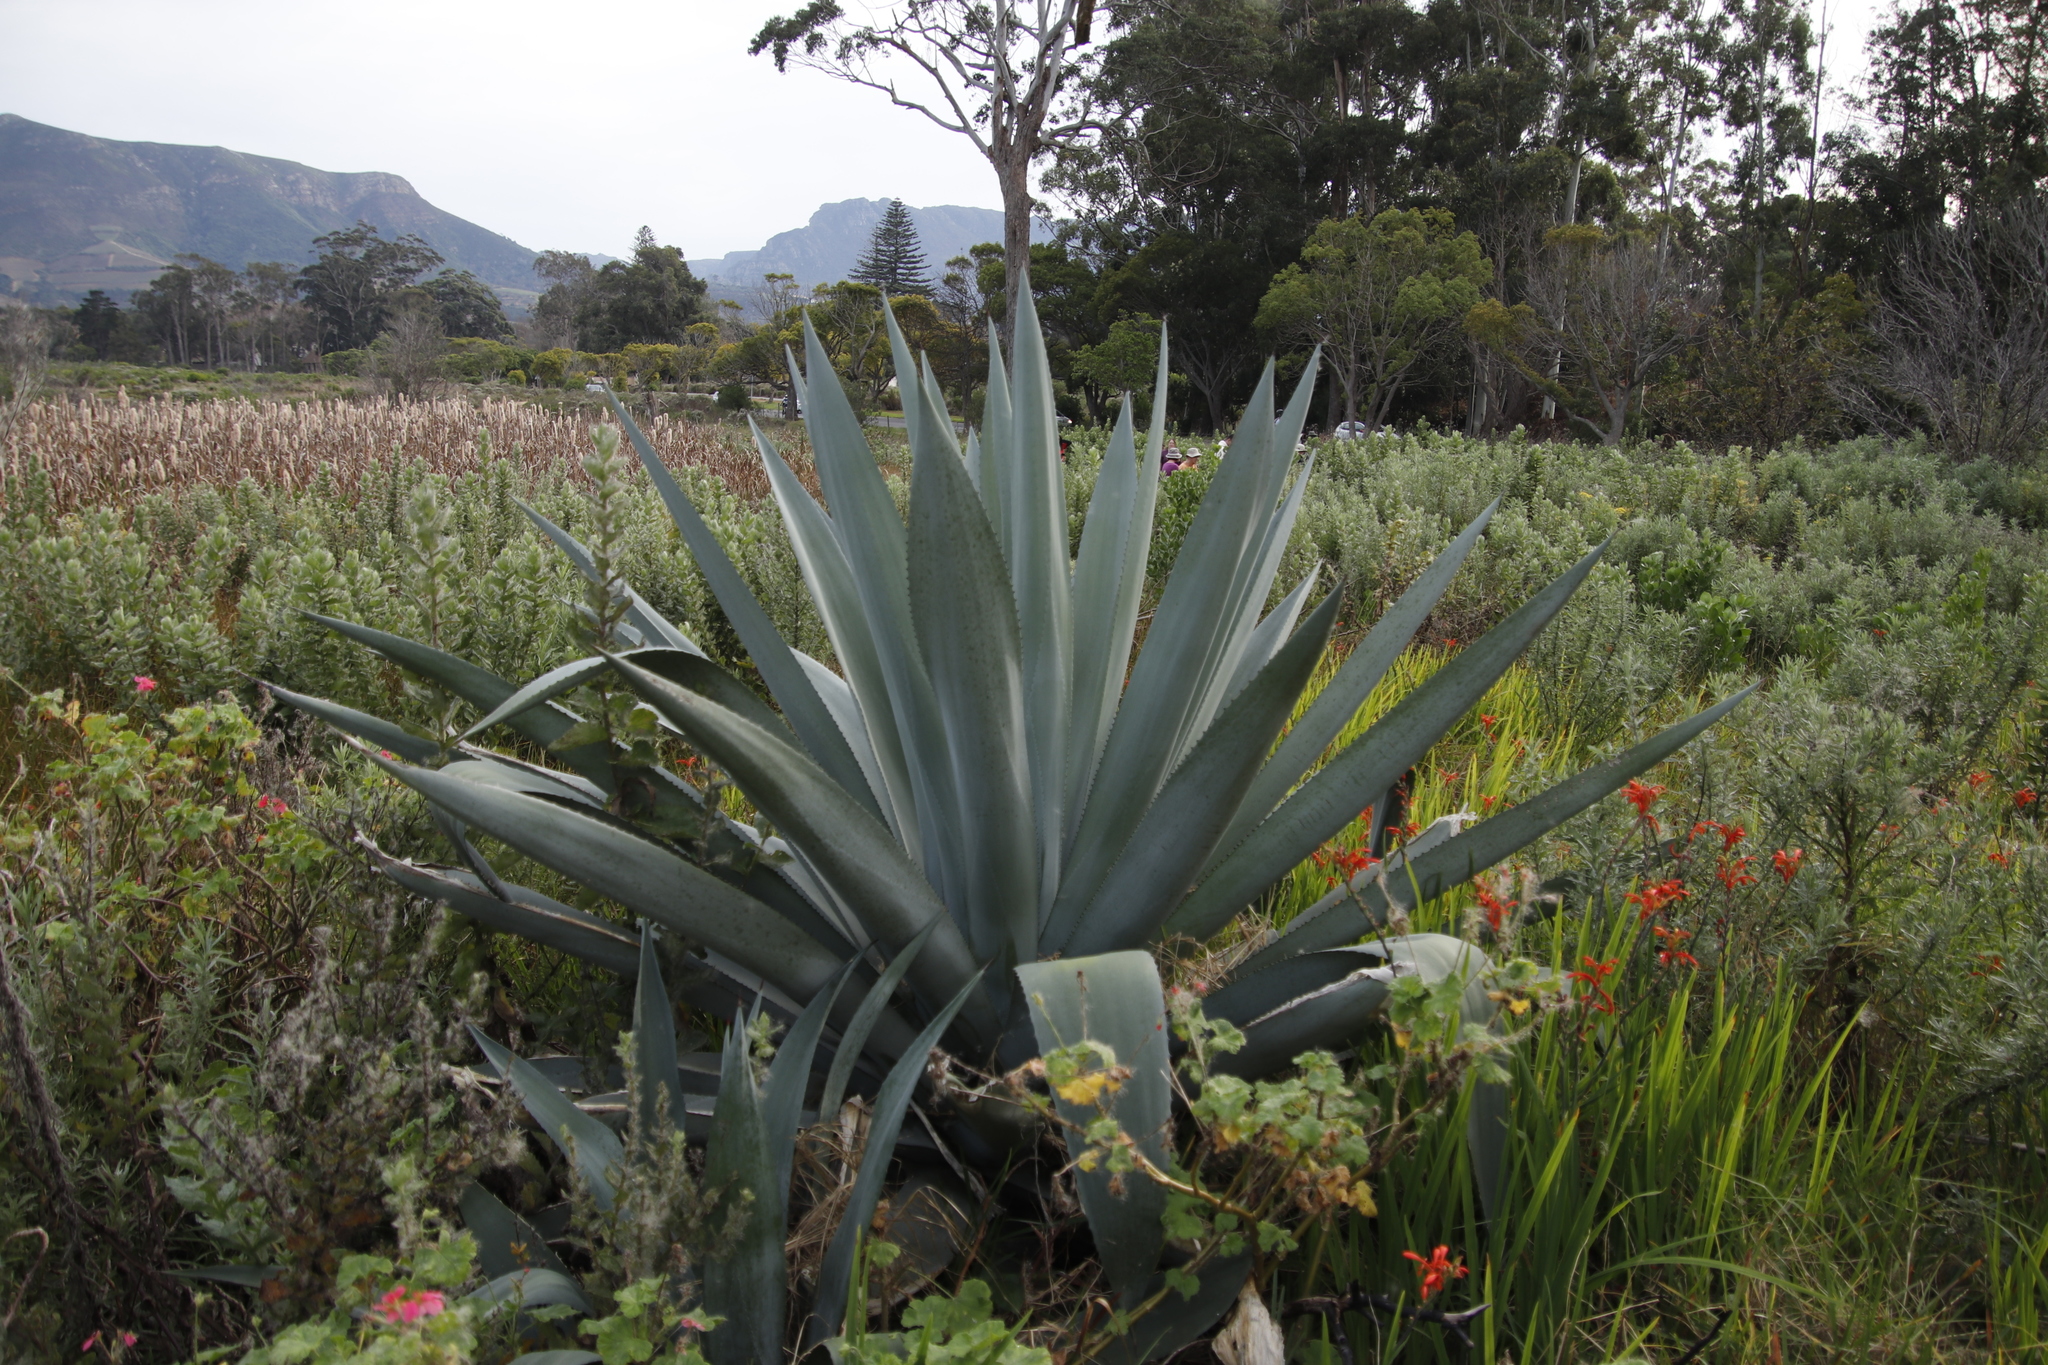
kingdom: Plantae
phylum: Tracheophyta
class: Liliopsida
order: Asparagales
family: Asparagaceae
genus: Agave
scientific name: Agave americana
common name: Centuryplant
